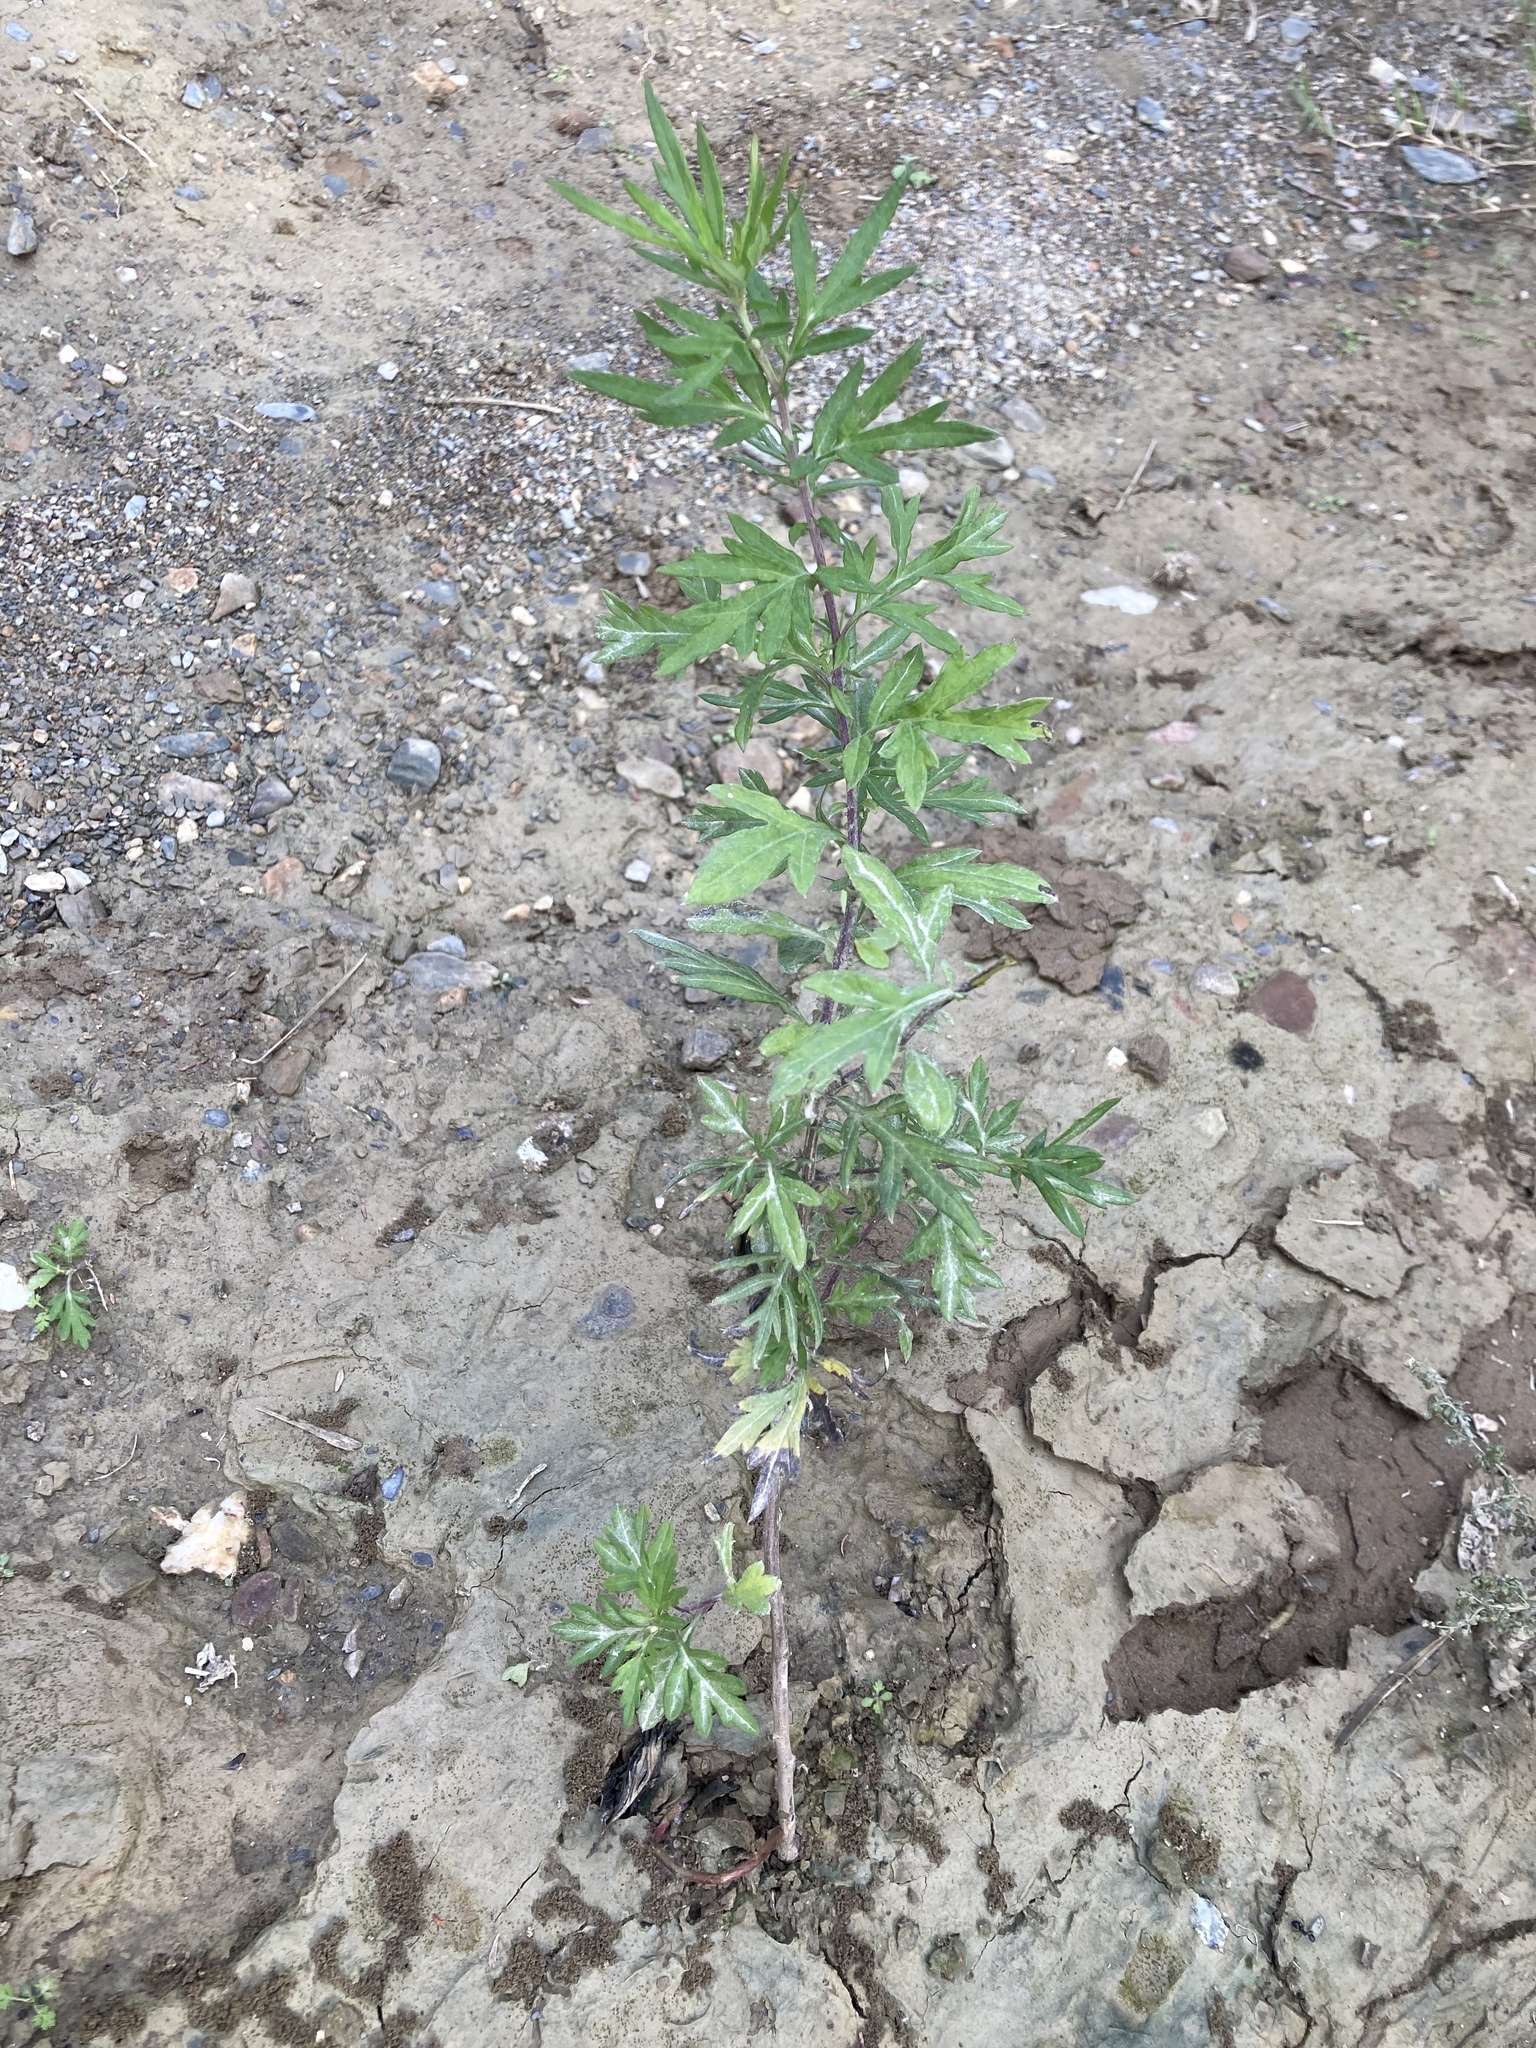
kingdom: Plantae
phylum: Tracheophyta
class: Magnoliopsida
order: Asterales
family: Asteraceae
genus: Artemisia
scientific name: Artemisia verlotiorum
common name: Chinese mugwort
